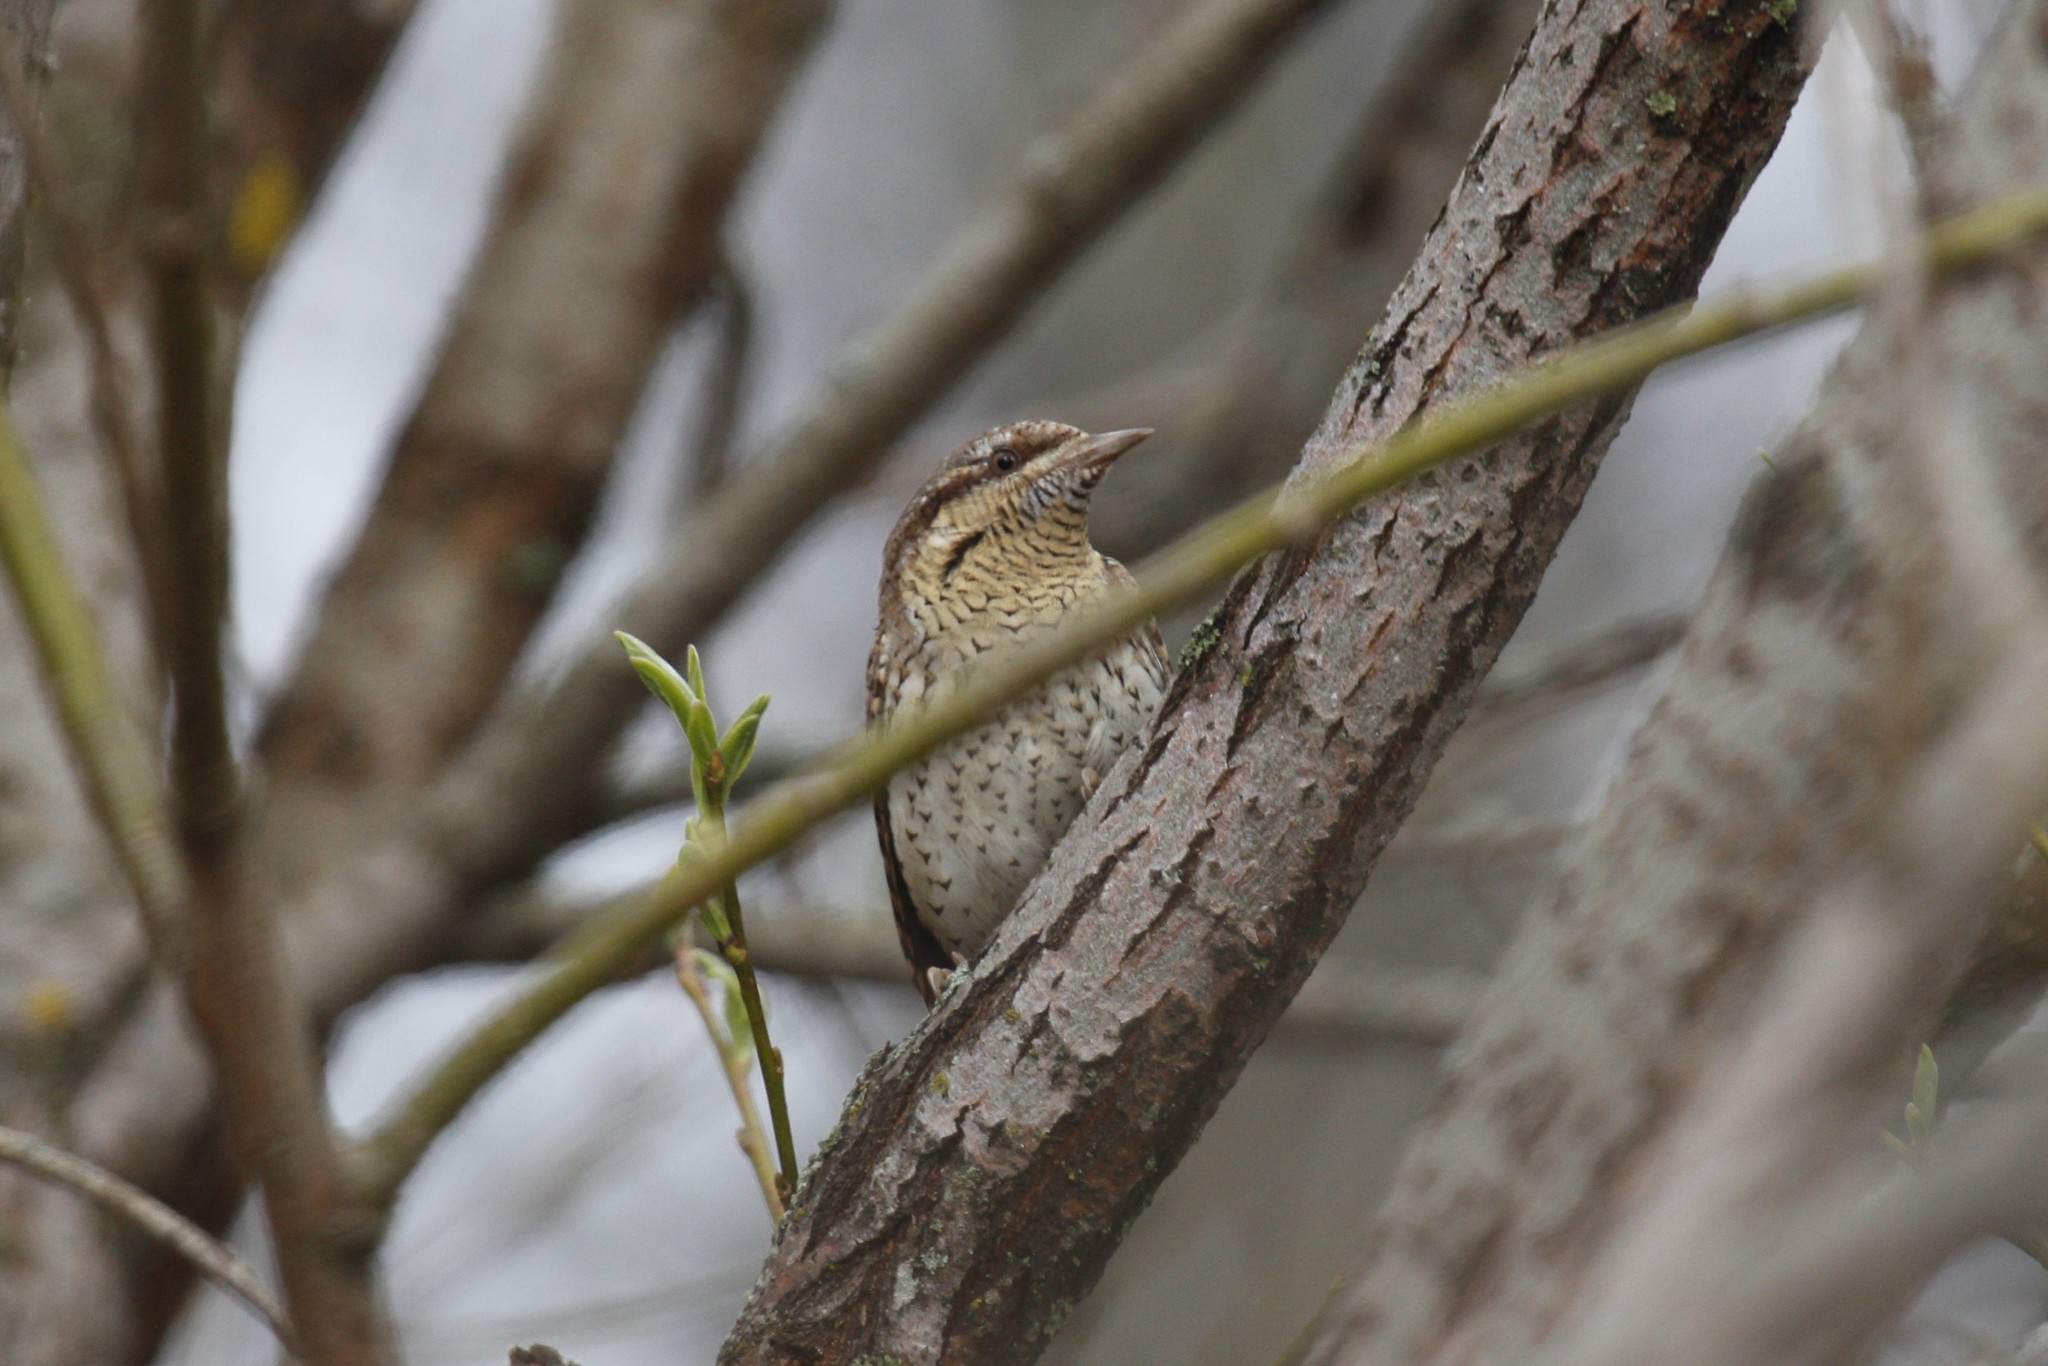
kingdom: Animalia
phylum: Chordata
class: Aves
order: Piciformes
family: Picidae
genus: Jynx
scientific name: Jynx torquilla
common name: Eurasian wryneck
